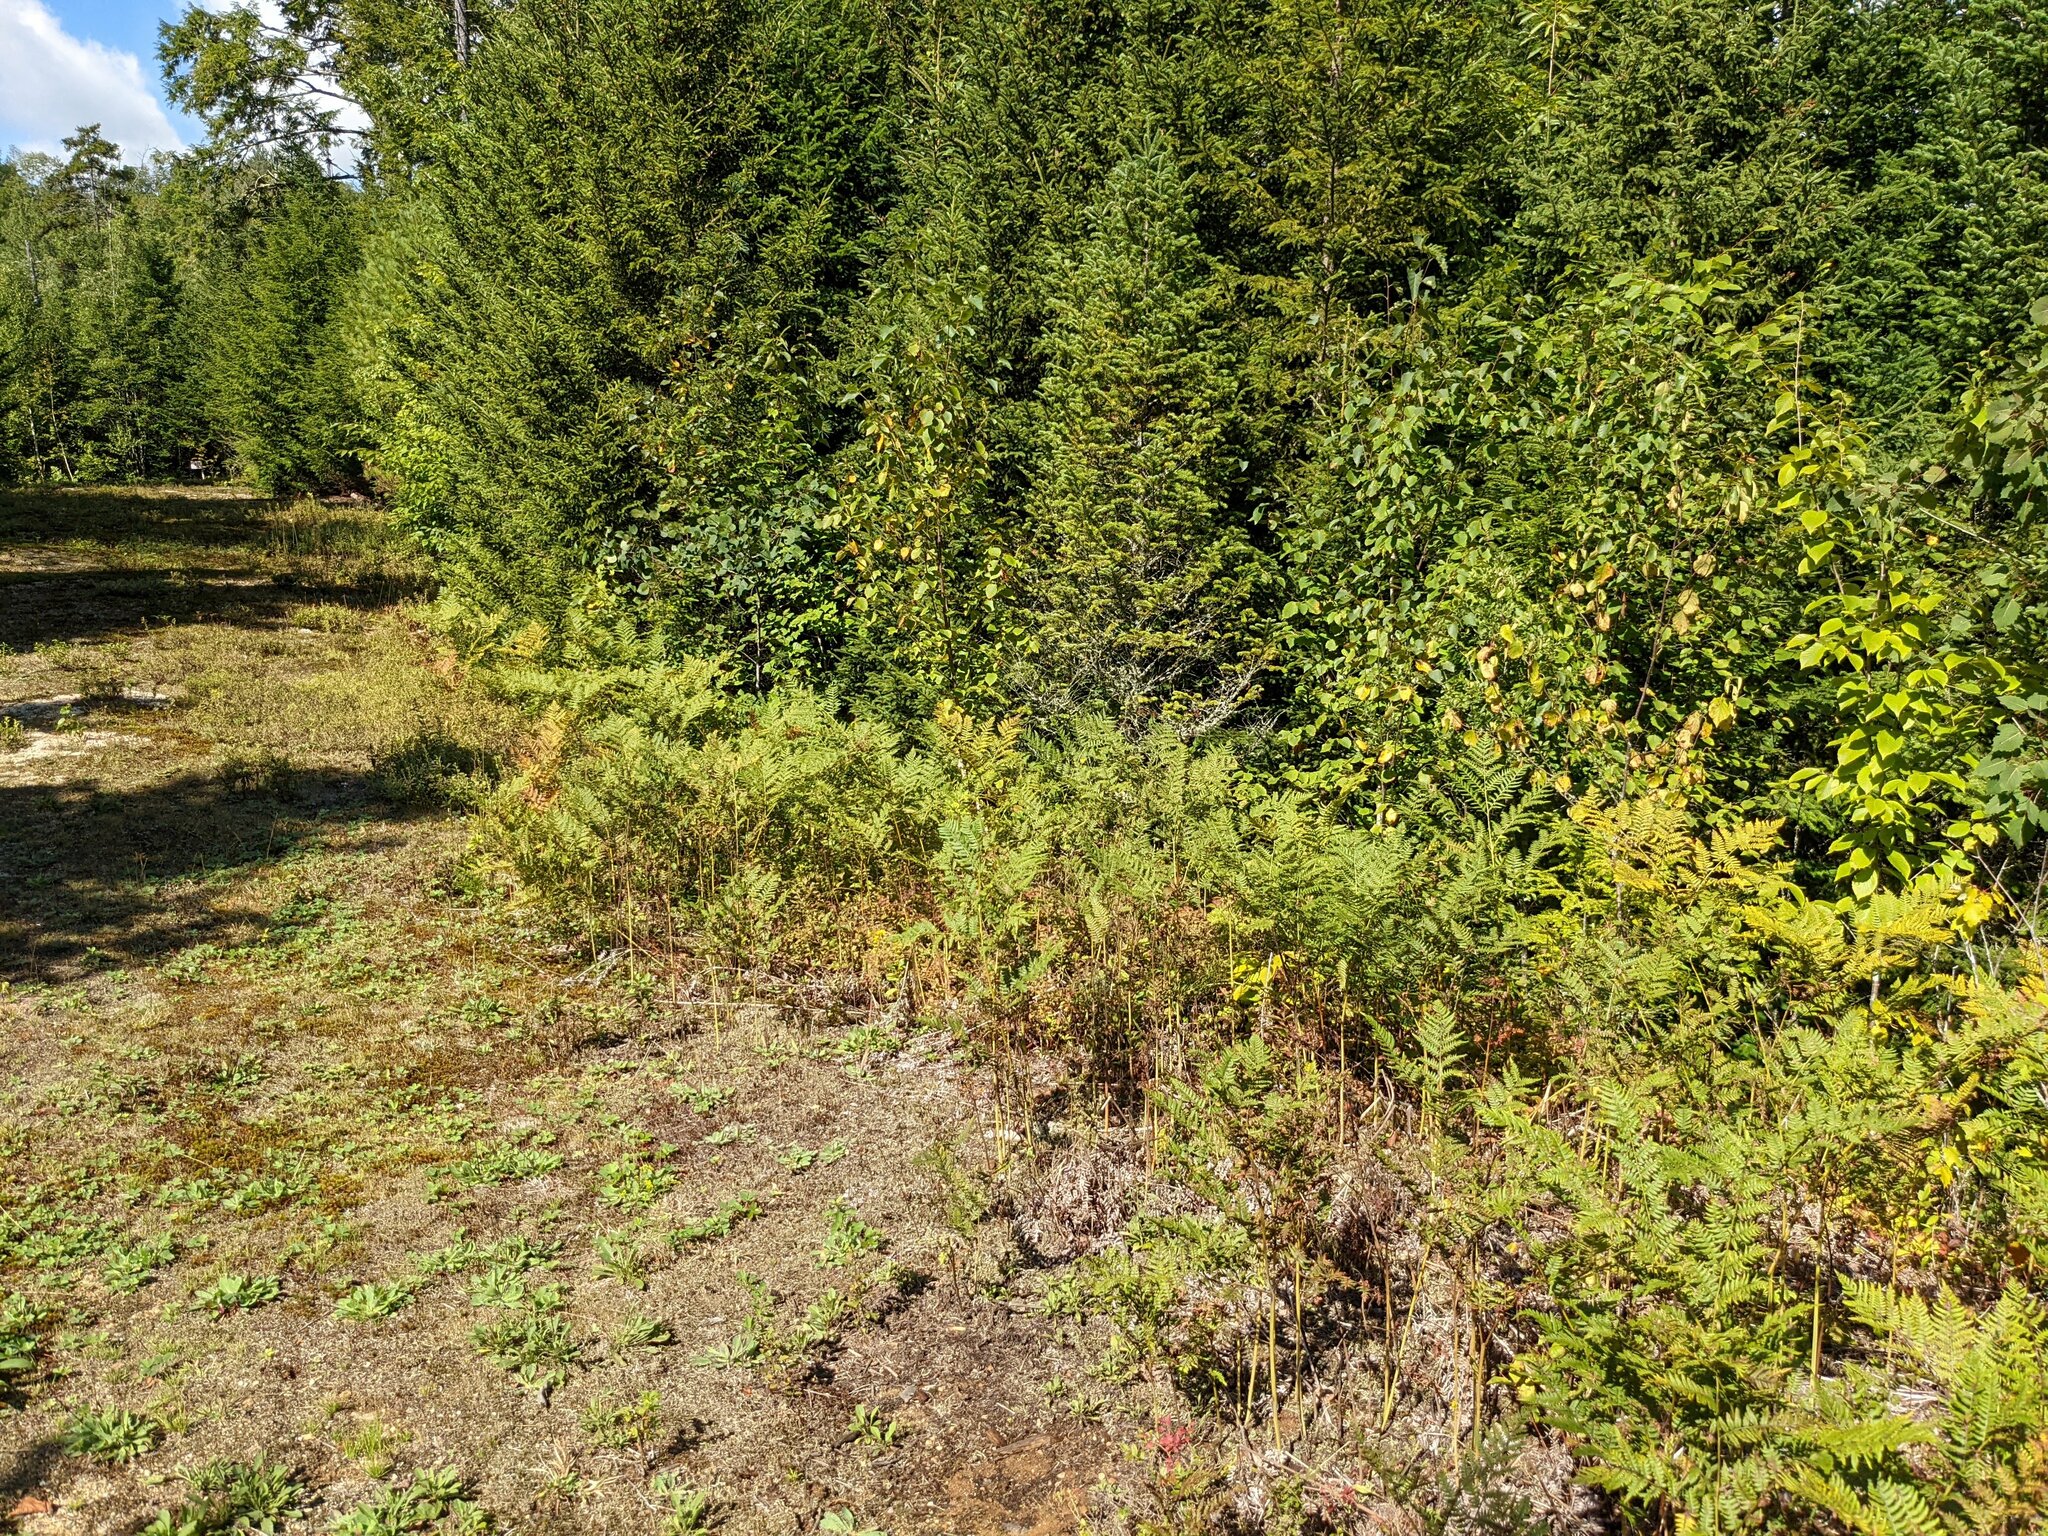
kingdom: Plantae
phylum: Tracheophyta
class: Polypodiopsida
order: Polypodiales
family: Dennstaedtiaceae
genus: Pteridium
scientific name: Pteridium aquilinum
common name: Bracken
